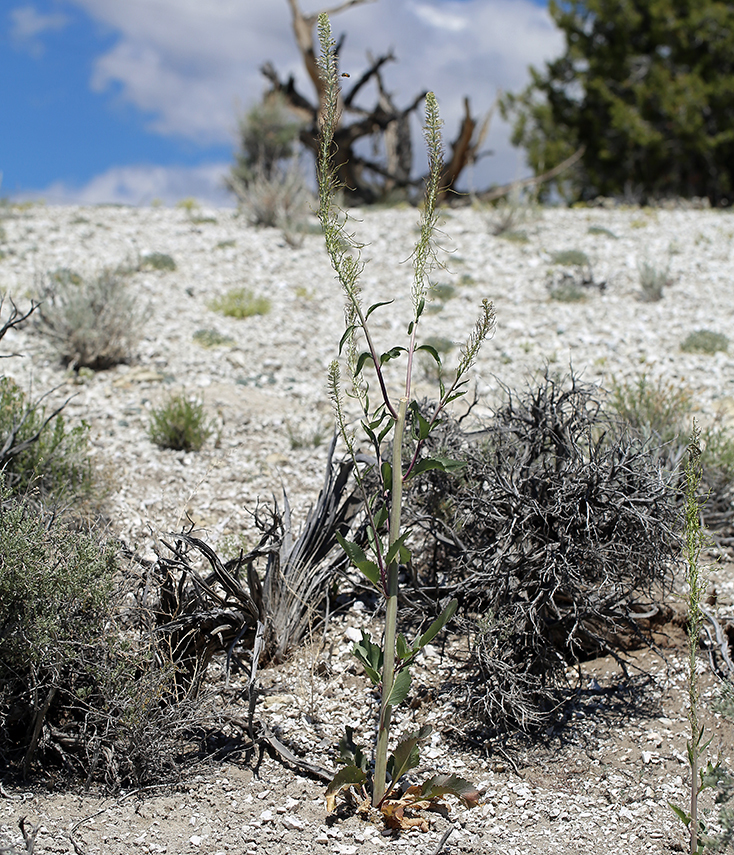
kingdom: Plantae
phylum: Tracheophyta
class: Magnoliopsida
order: Brassicales
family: Brassicaceae
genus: Thelypodium
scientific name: Thelypodium milleflorum
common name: Many-flowered thelypody
